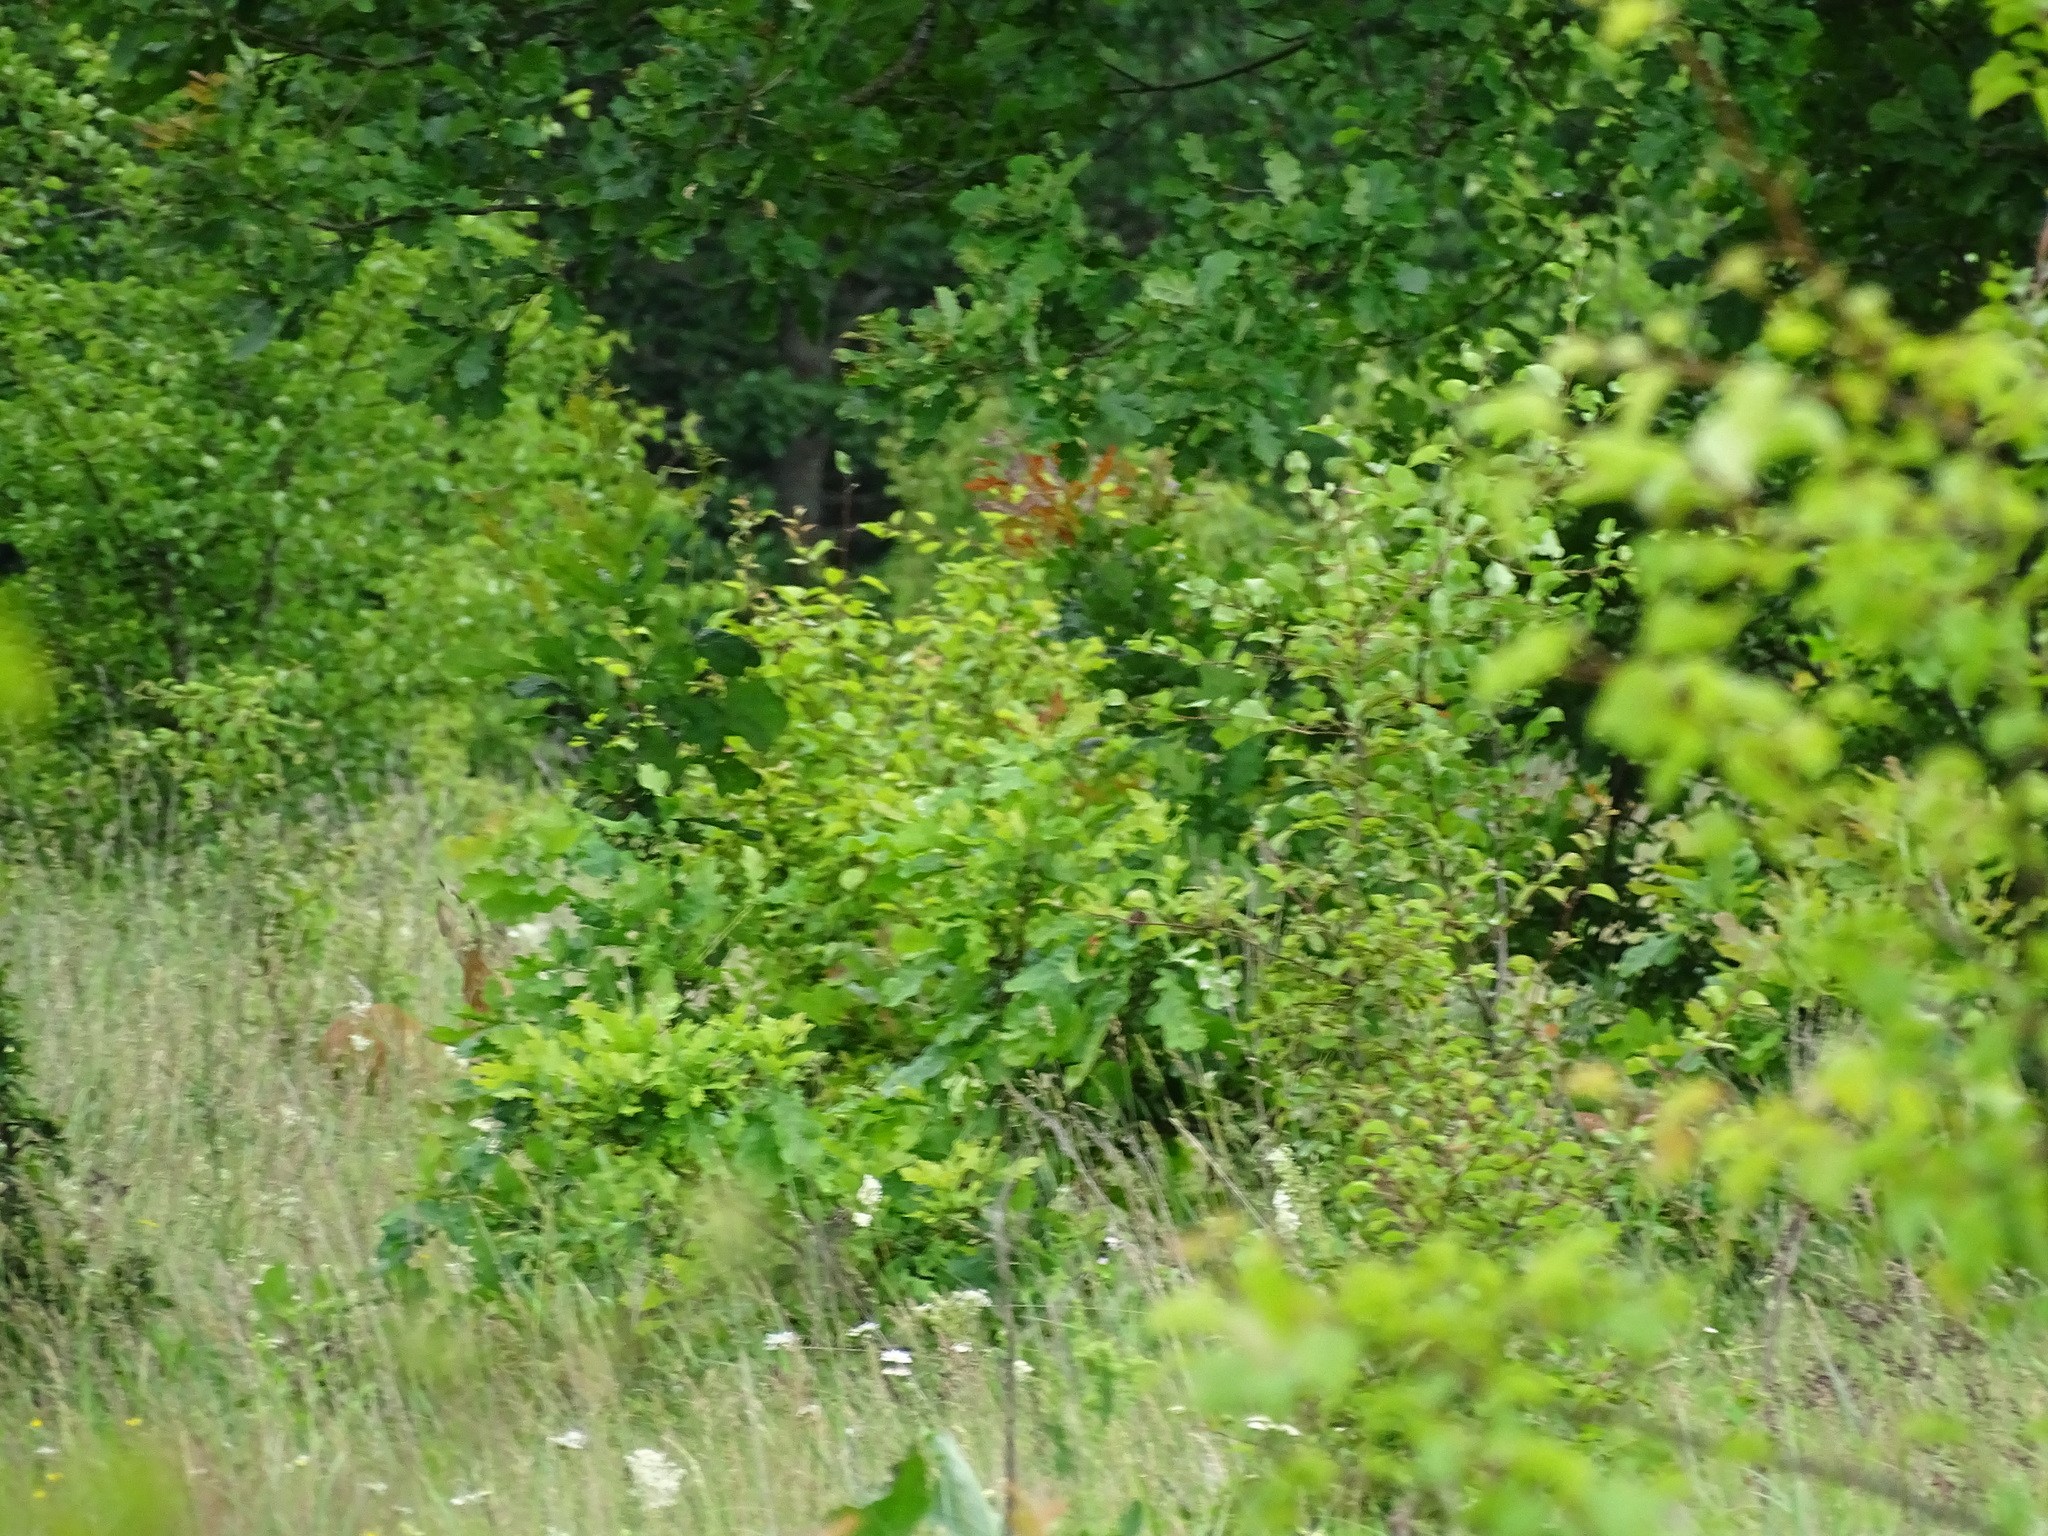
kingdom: Animalia
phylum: Chordata
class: Mammalia
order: Artiodactyla
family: Cervidae
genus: Capreolus
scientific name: Capreolus capreolus
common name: Western roe deer
